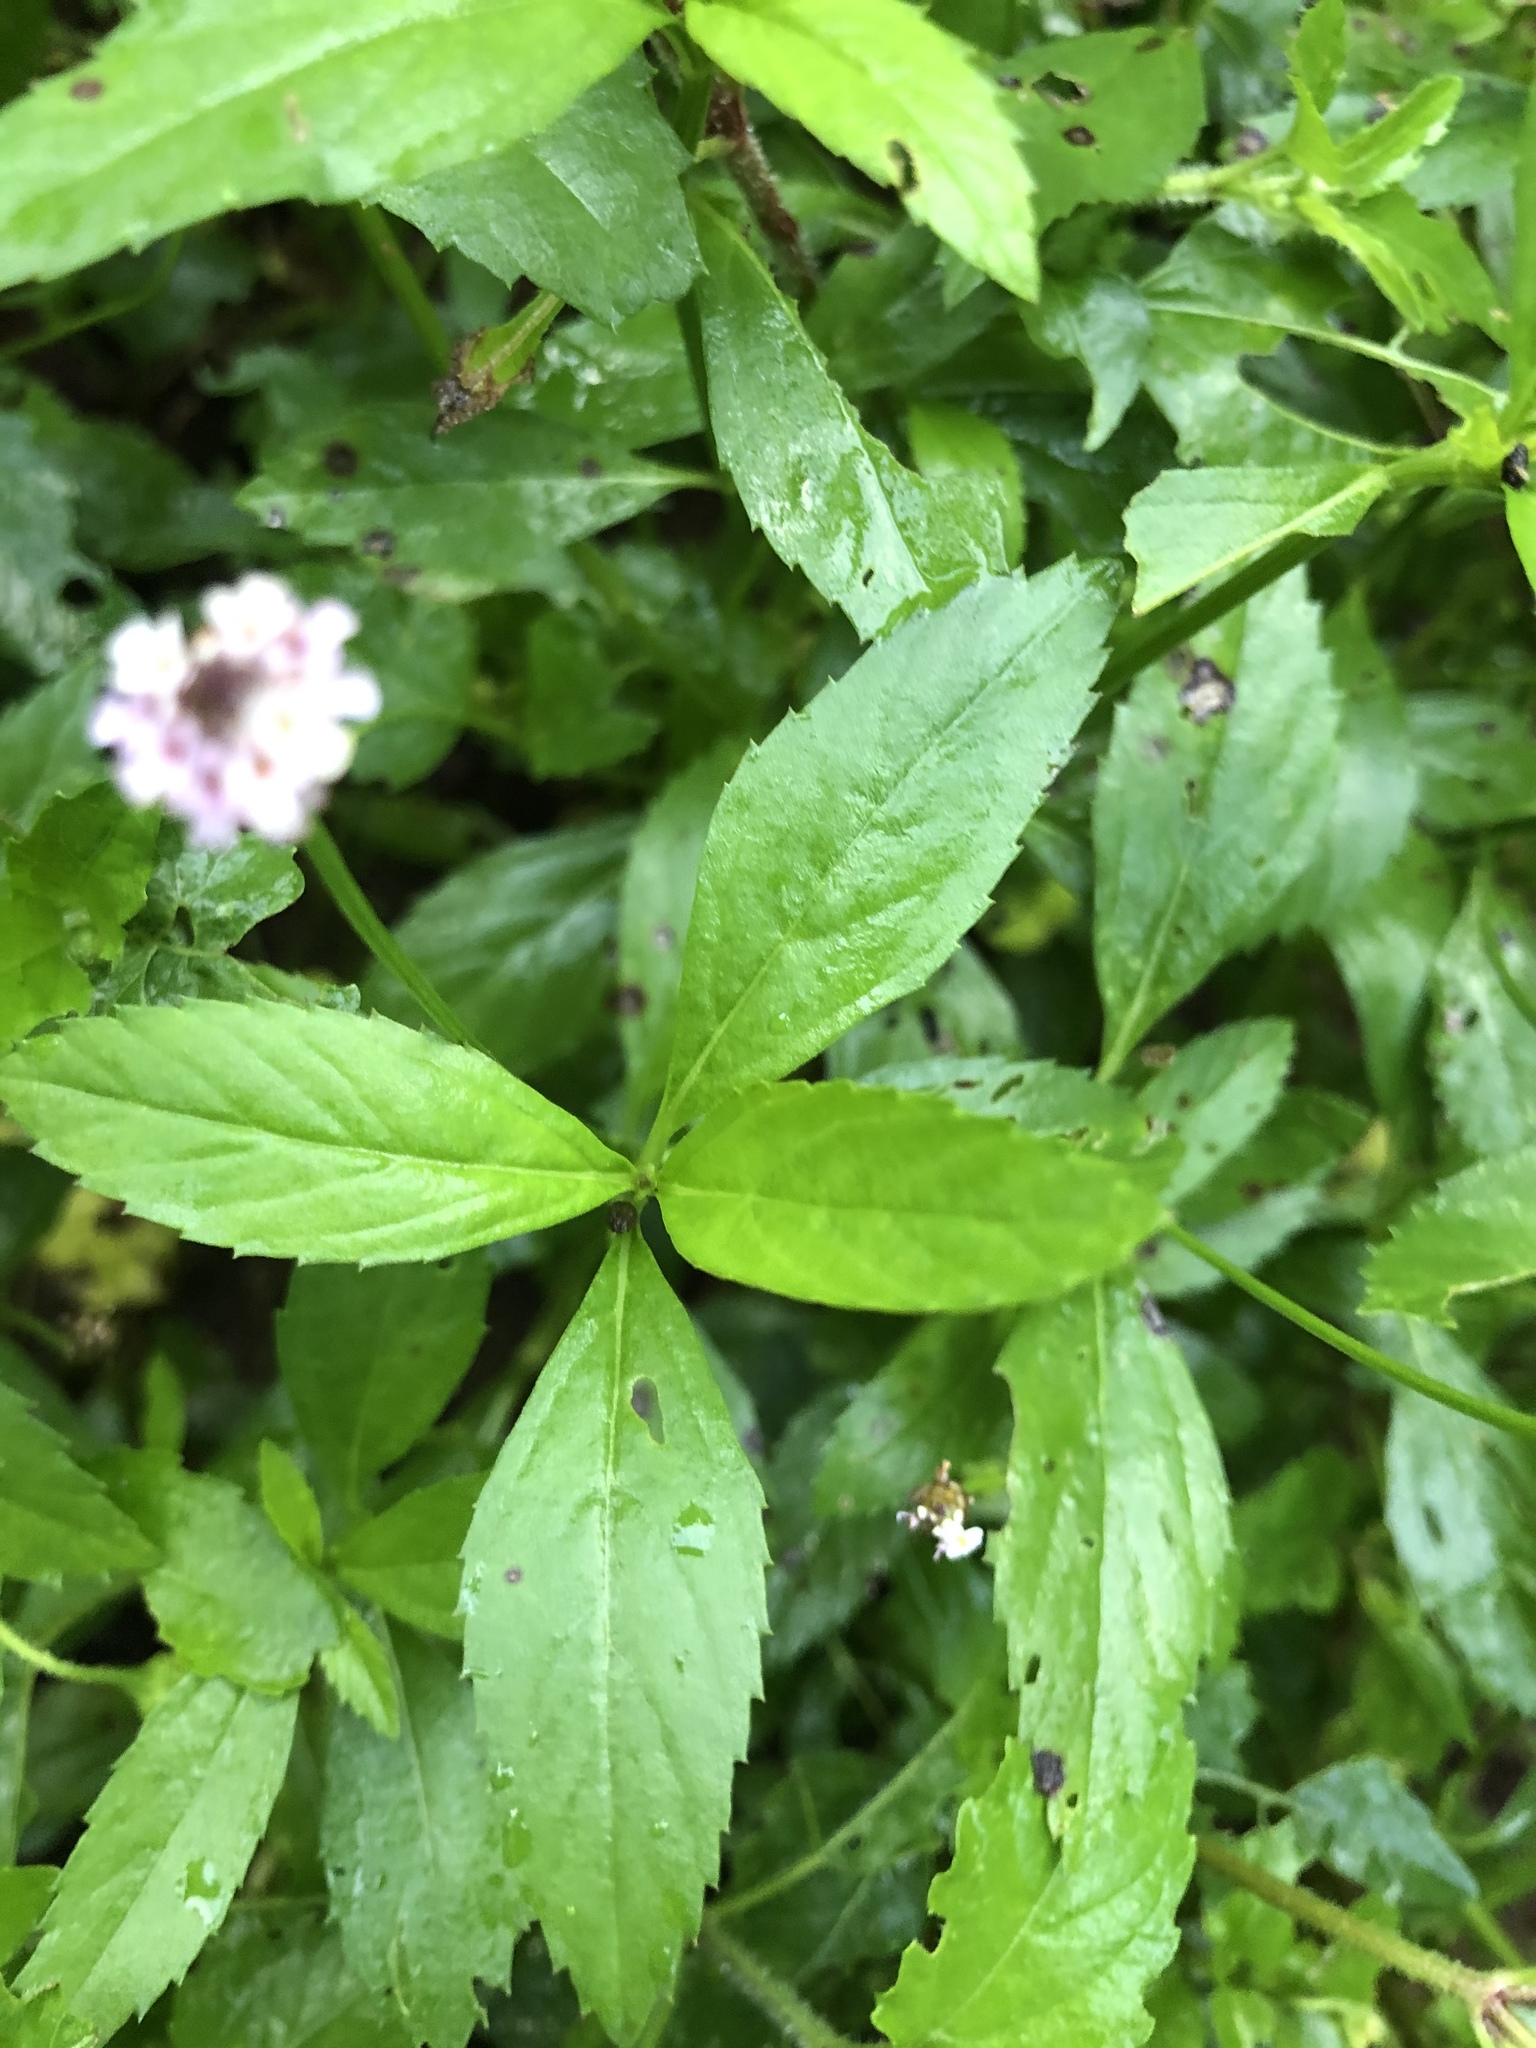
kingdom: Plantae
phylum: Tracheophyta
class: Magnoliopsida
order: Lamiales
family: Verbenaceae
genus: Phyla
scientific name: Phyla lanceolata
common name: Northern fogfruit
